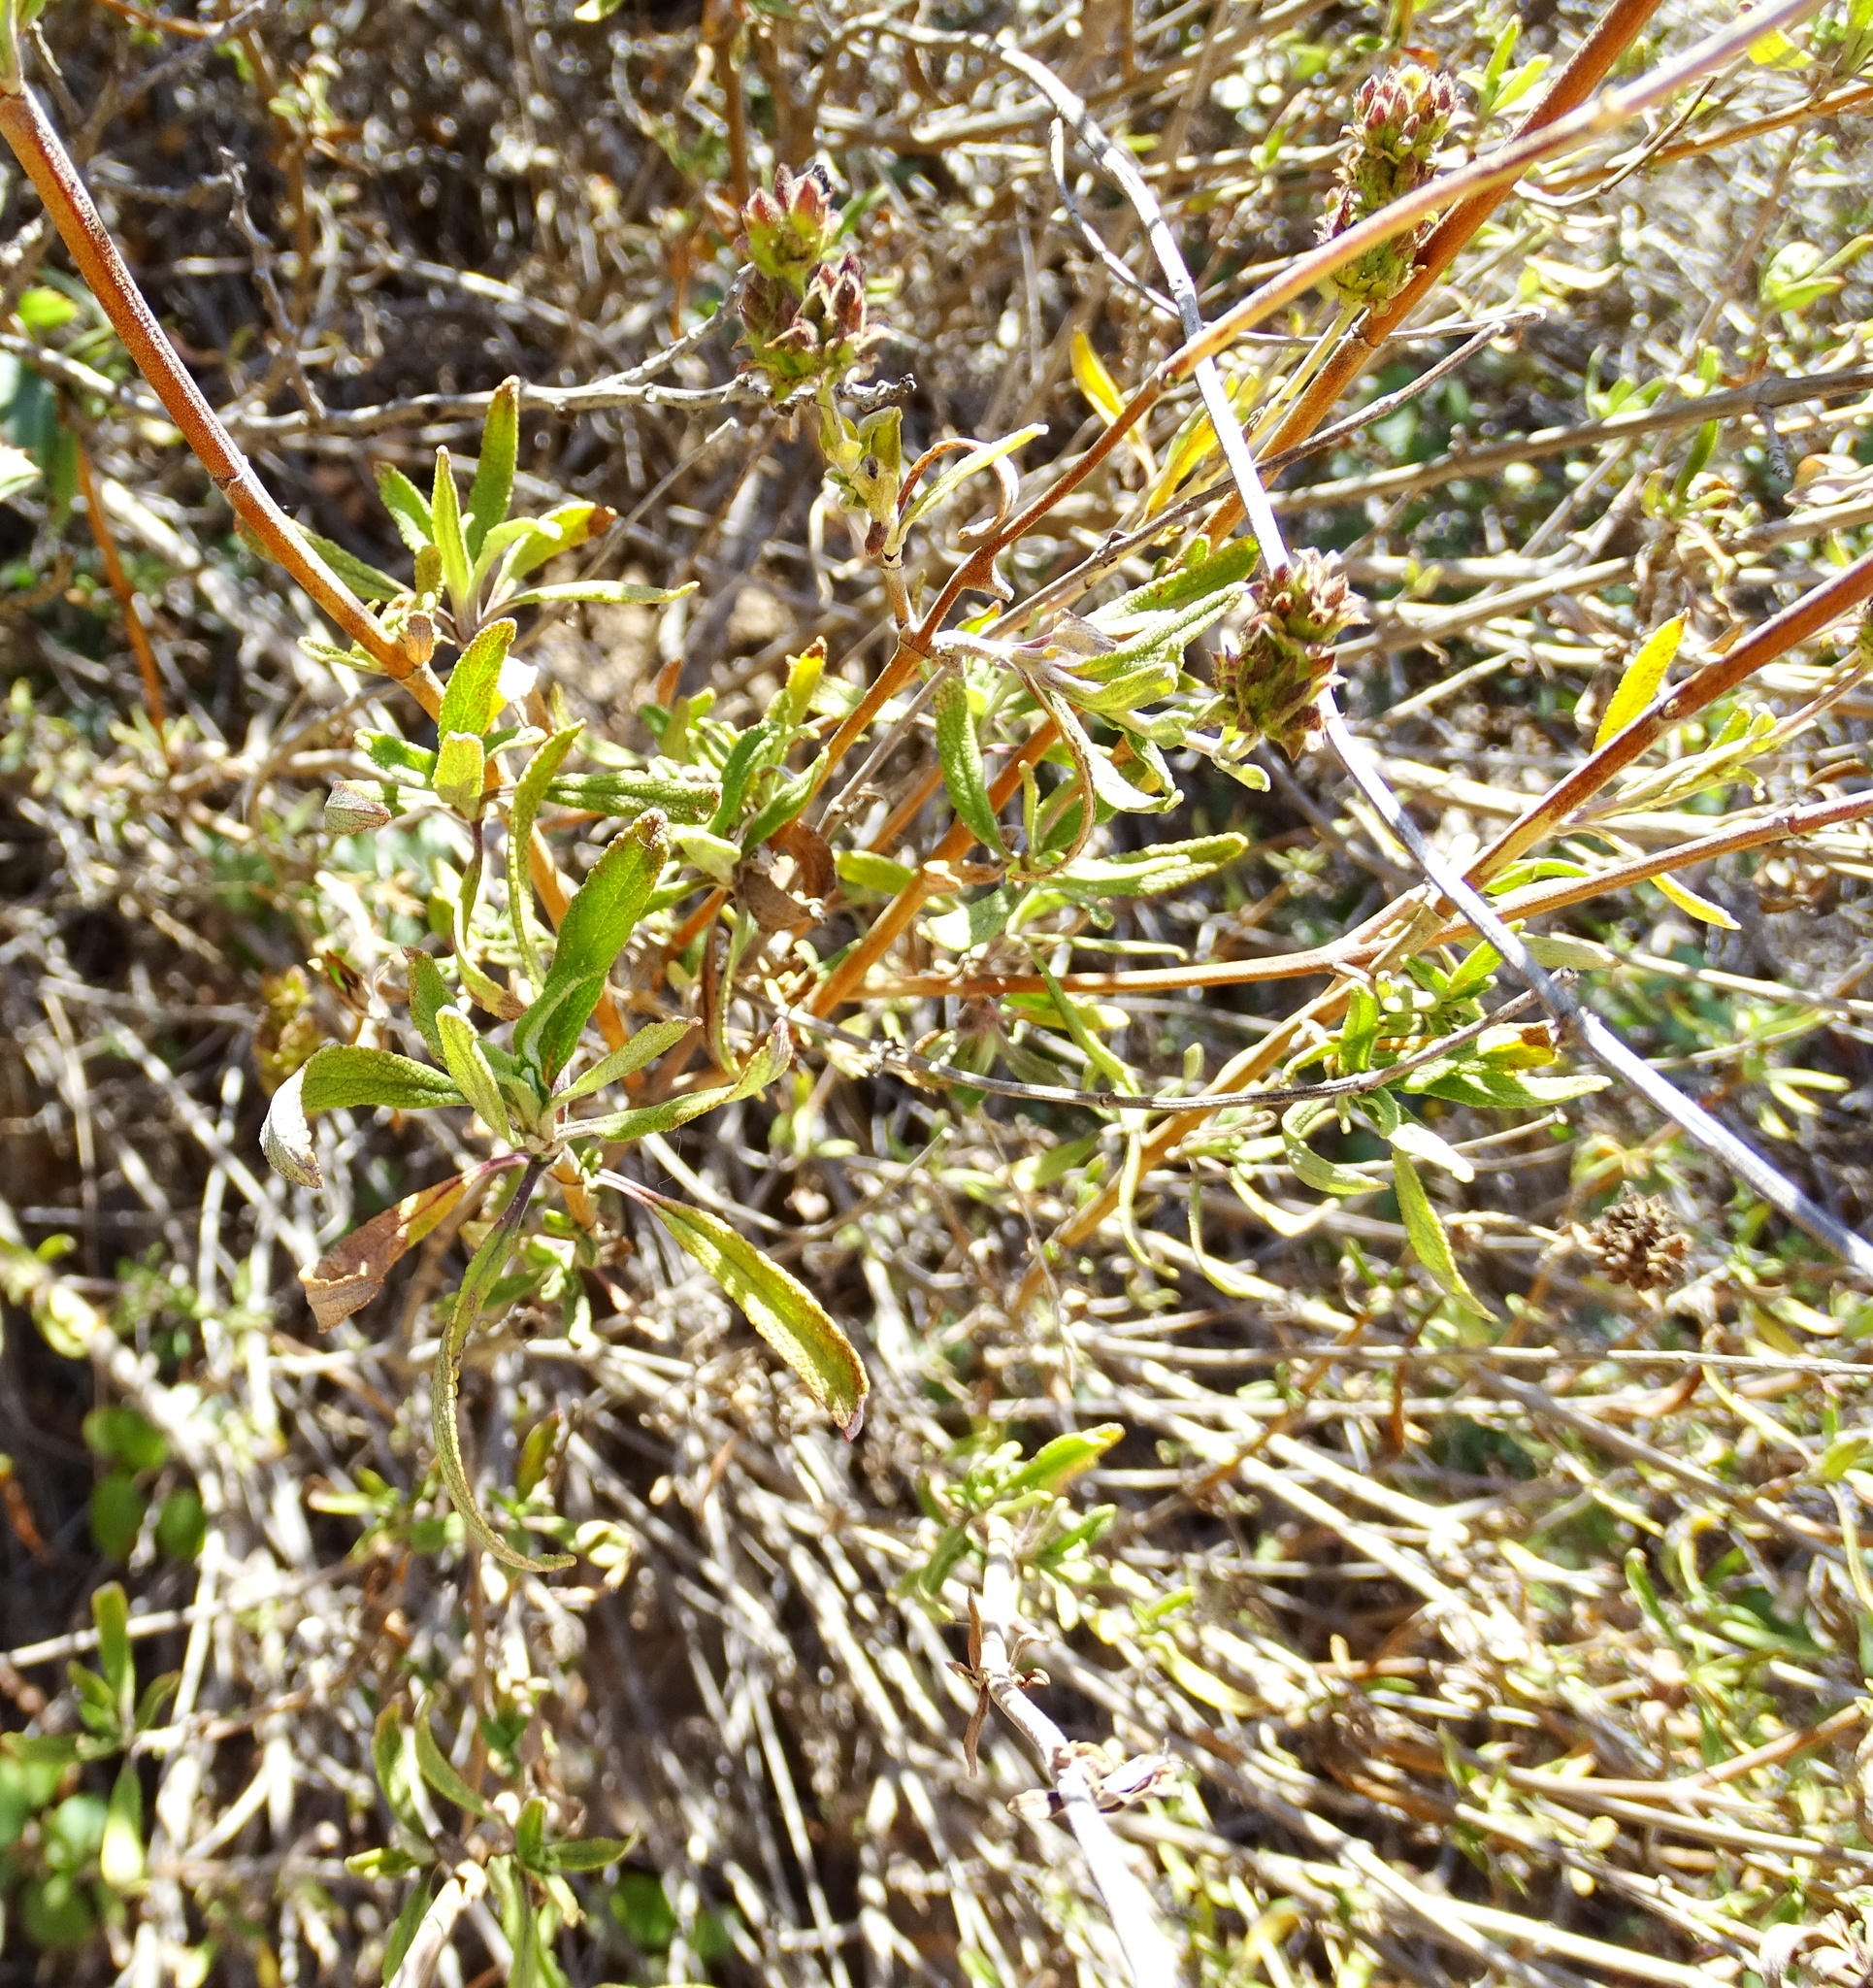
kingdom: Plantae
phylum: Tracheophyta
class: Magnoliopsida
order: Lamiales
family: Lamiaceae
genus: Salvia
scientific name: Salvia mellifera
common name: Black sage
